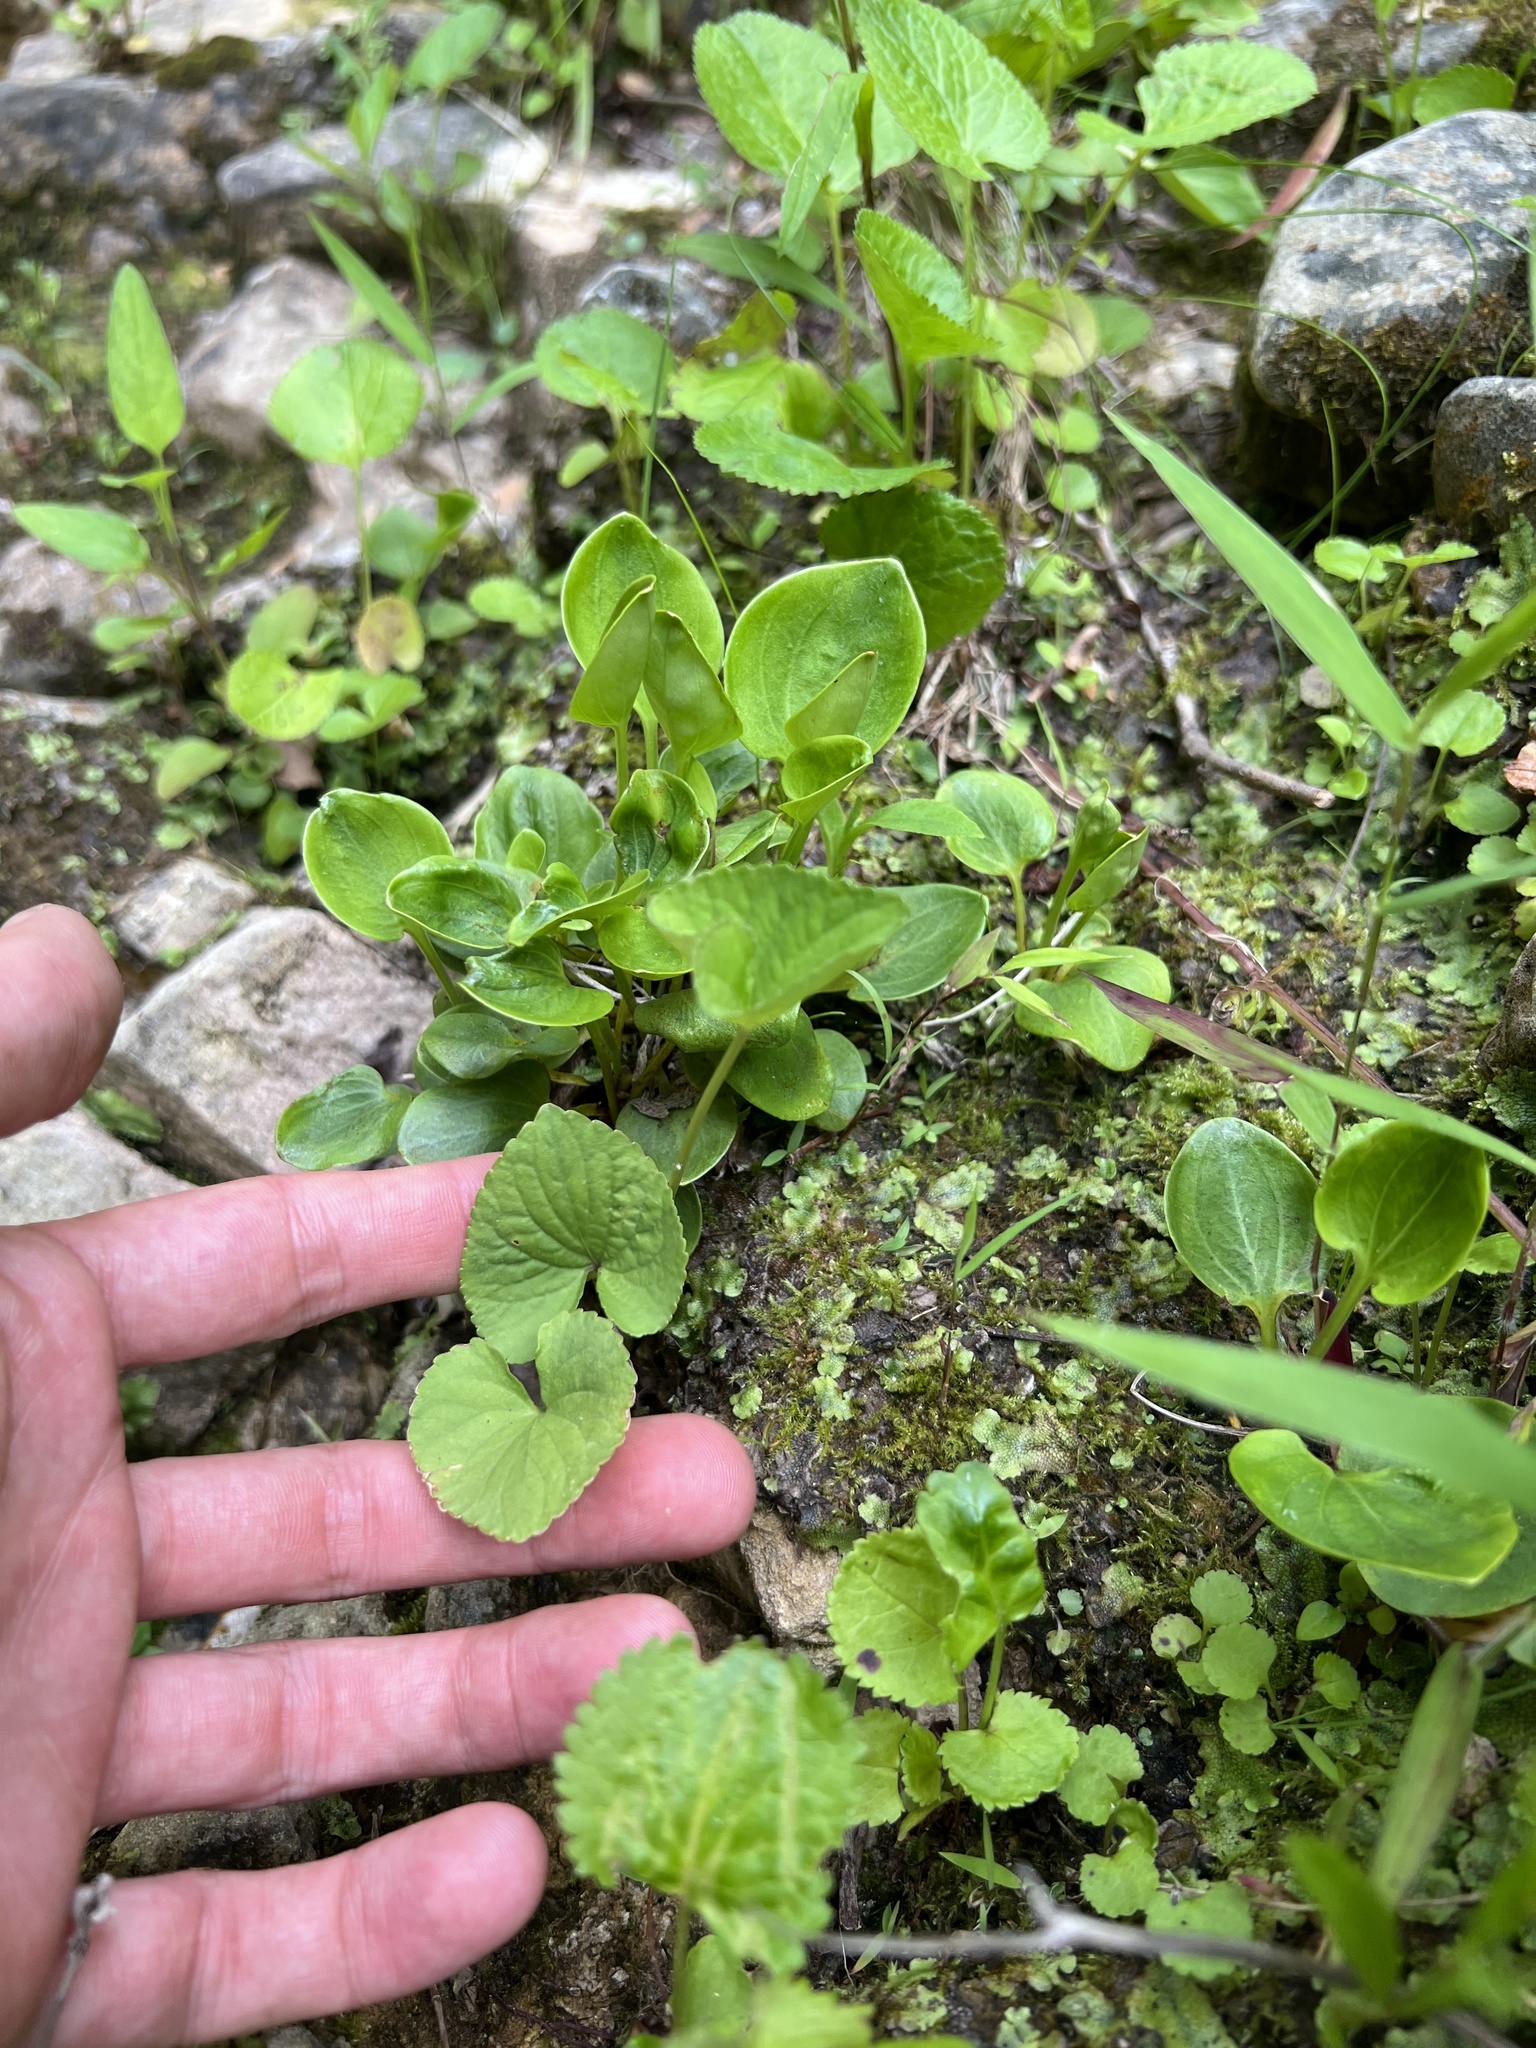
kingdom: Plantae
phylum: Tracheophyta
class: Magnoliopsida
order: Malpighiales
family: Violaceae
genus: Viola
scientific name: Viola sororia
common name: Dooryard violet
